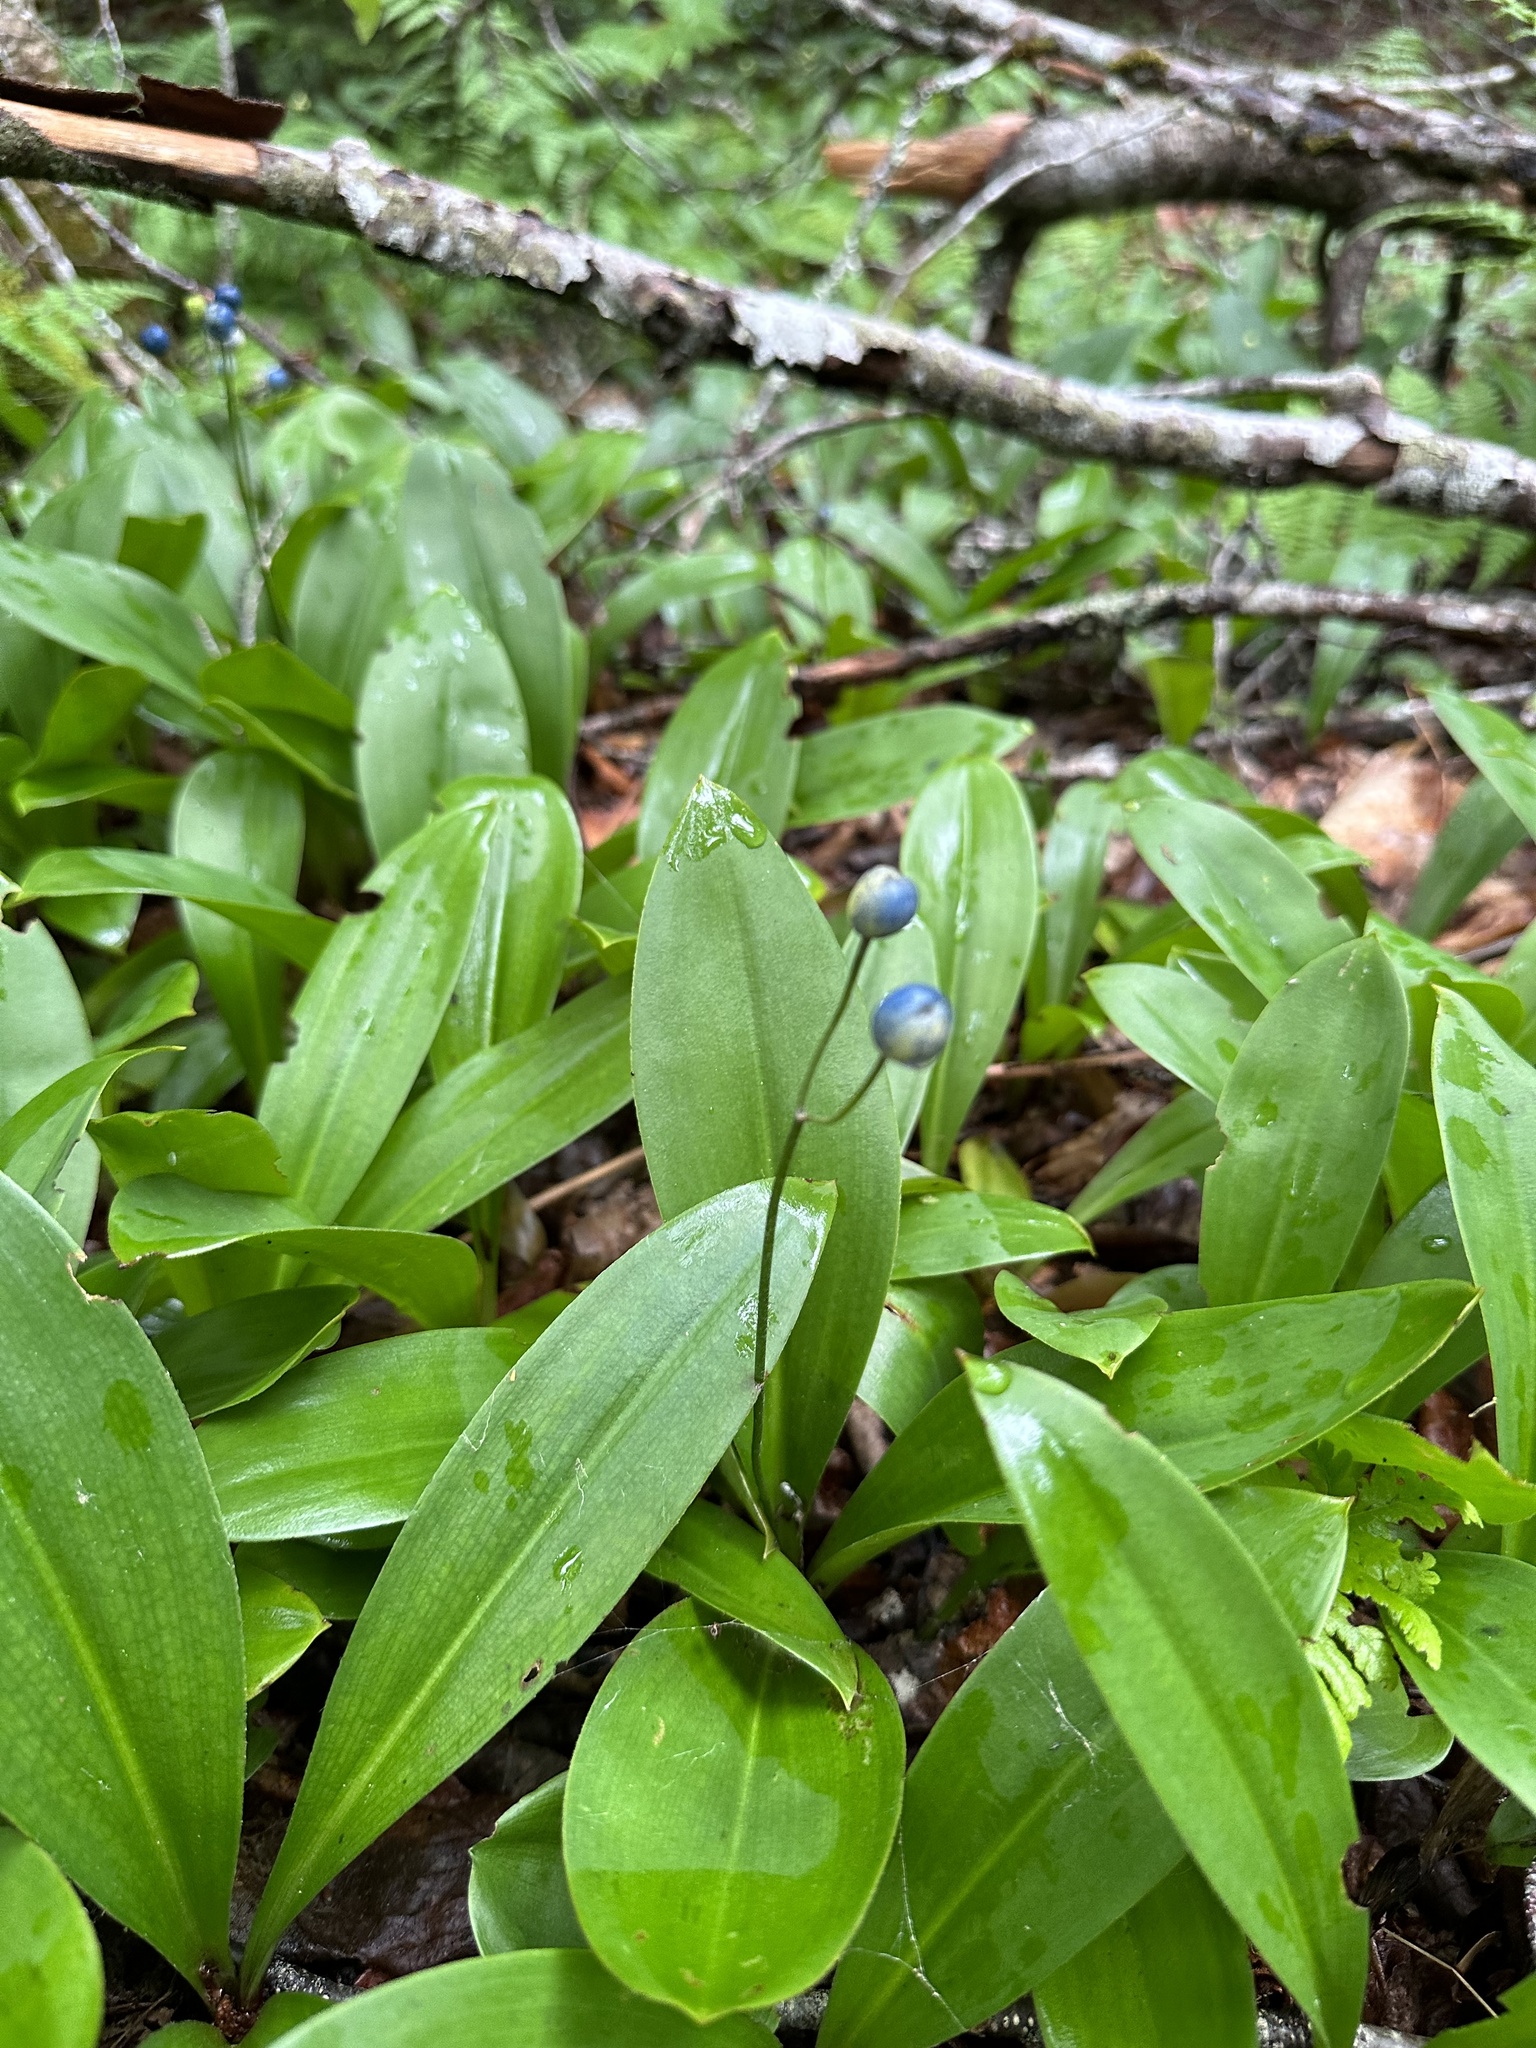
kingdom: Plantae
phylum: Tracheophyta
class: Liliopsida
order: Liliales
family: Liliaceae
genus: Clintonia
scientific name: Clintonia borealis
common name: Yellow clintonia
